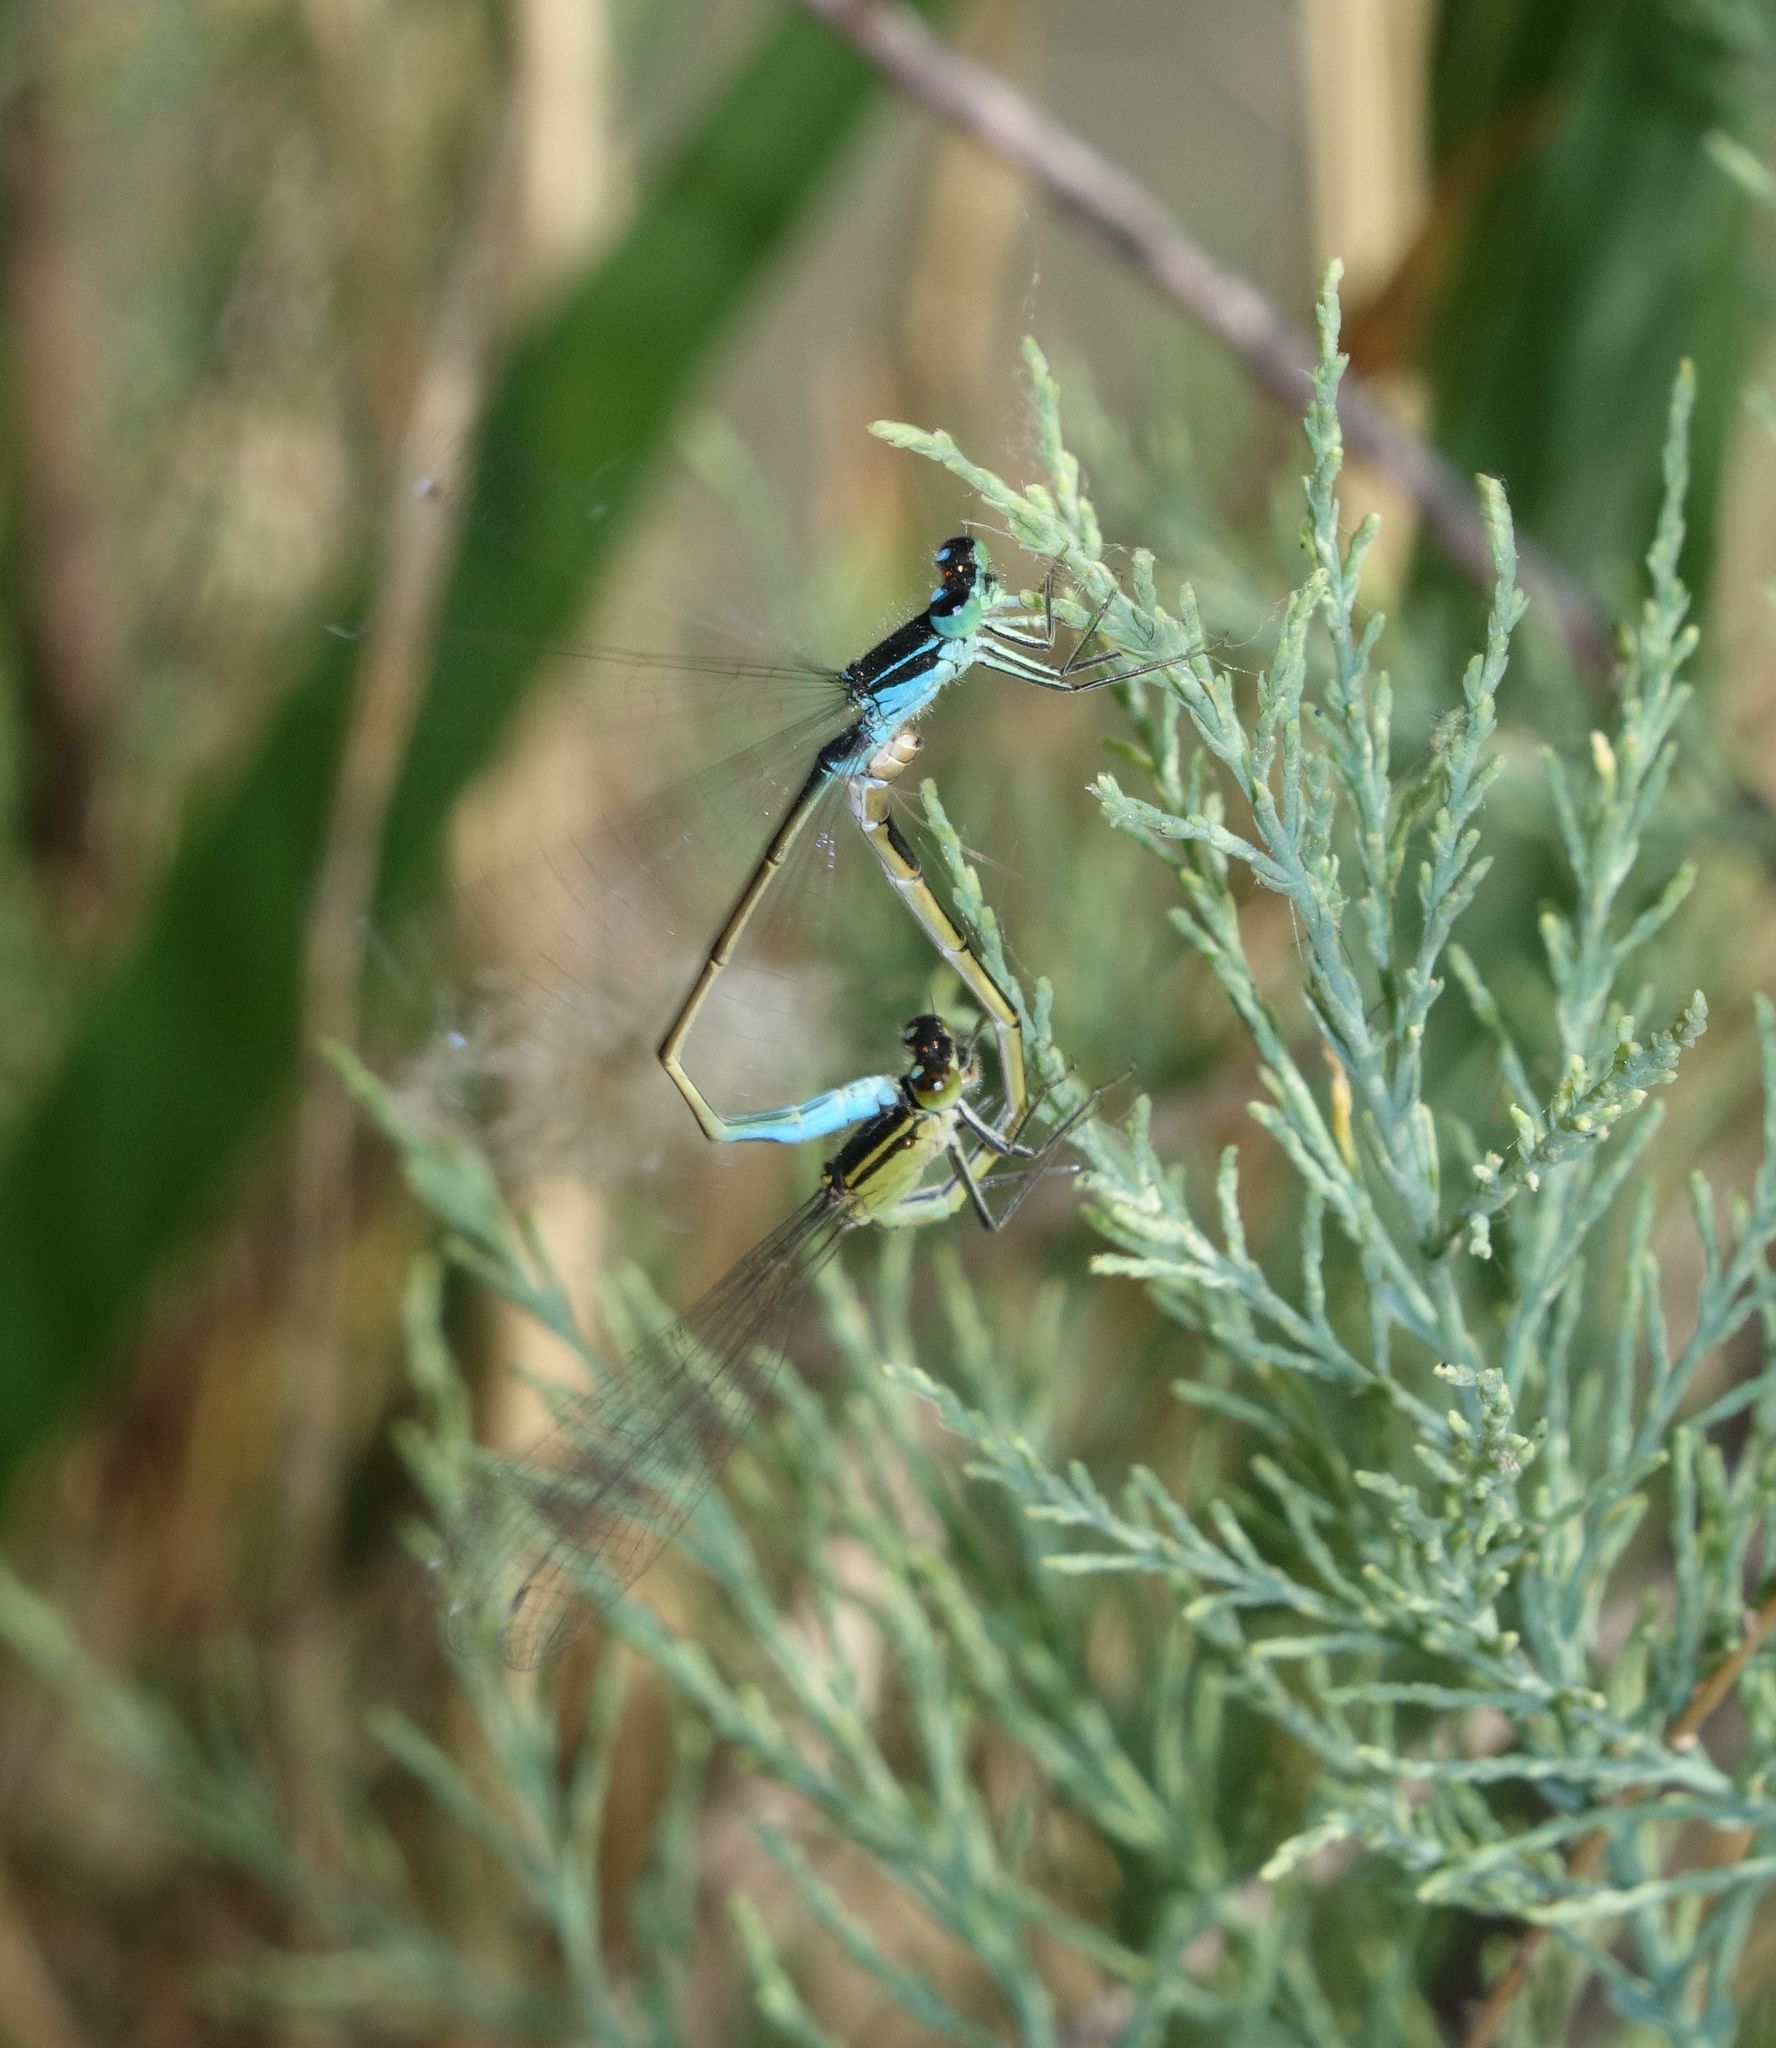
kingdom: Animalia
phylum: Arthropoda
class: Insecta
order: Odonata
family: Coenagrionidae
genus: Ischnura
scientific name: Ischnura elegans
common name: Blue-tailed damselfly
